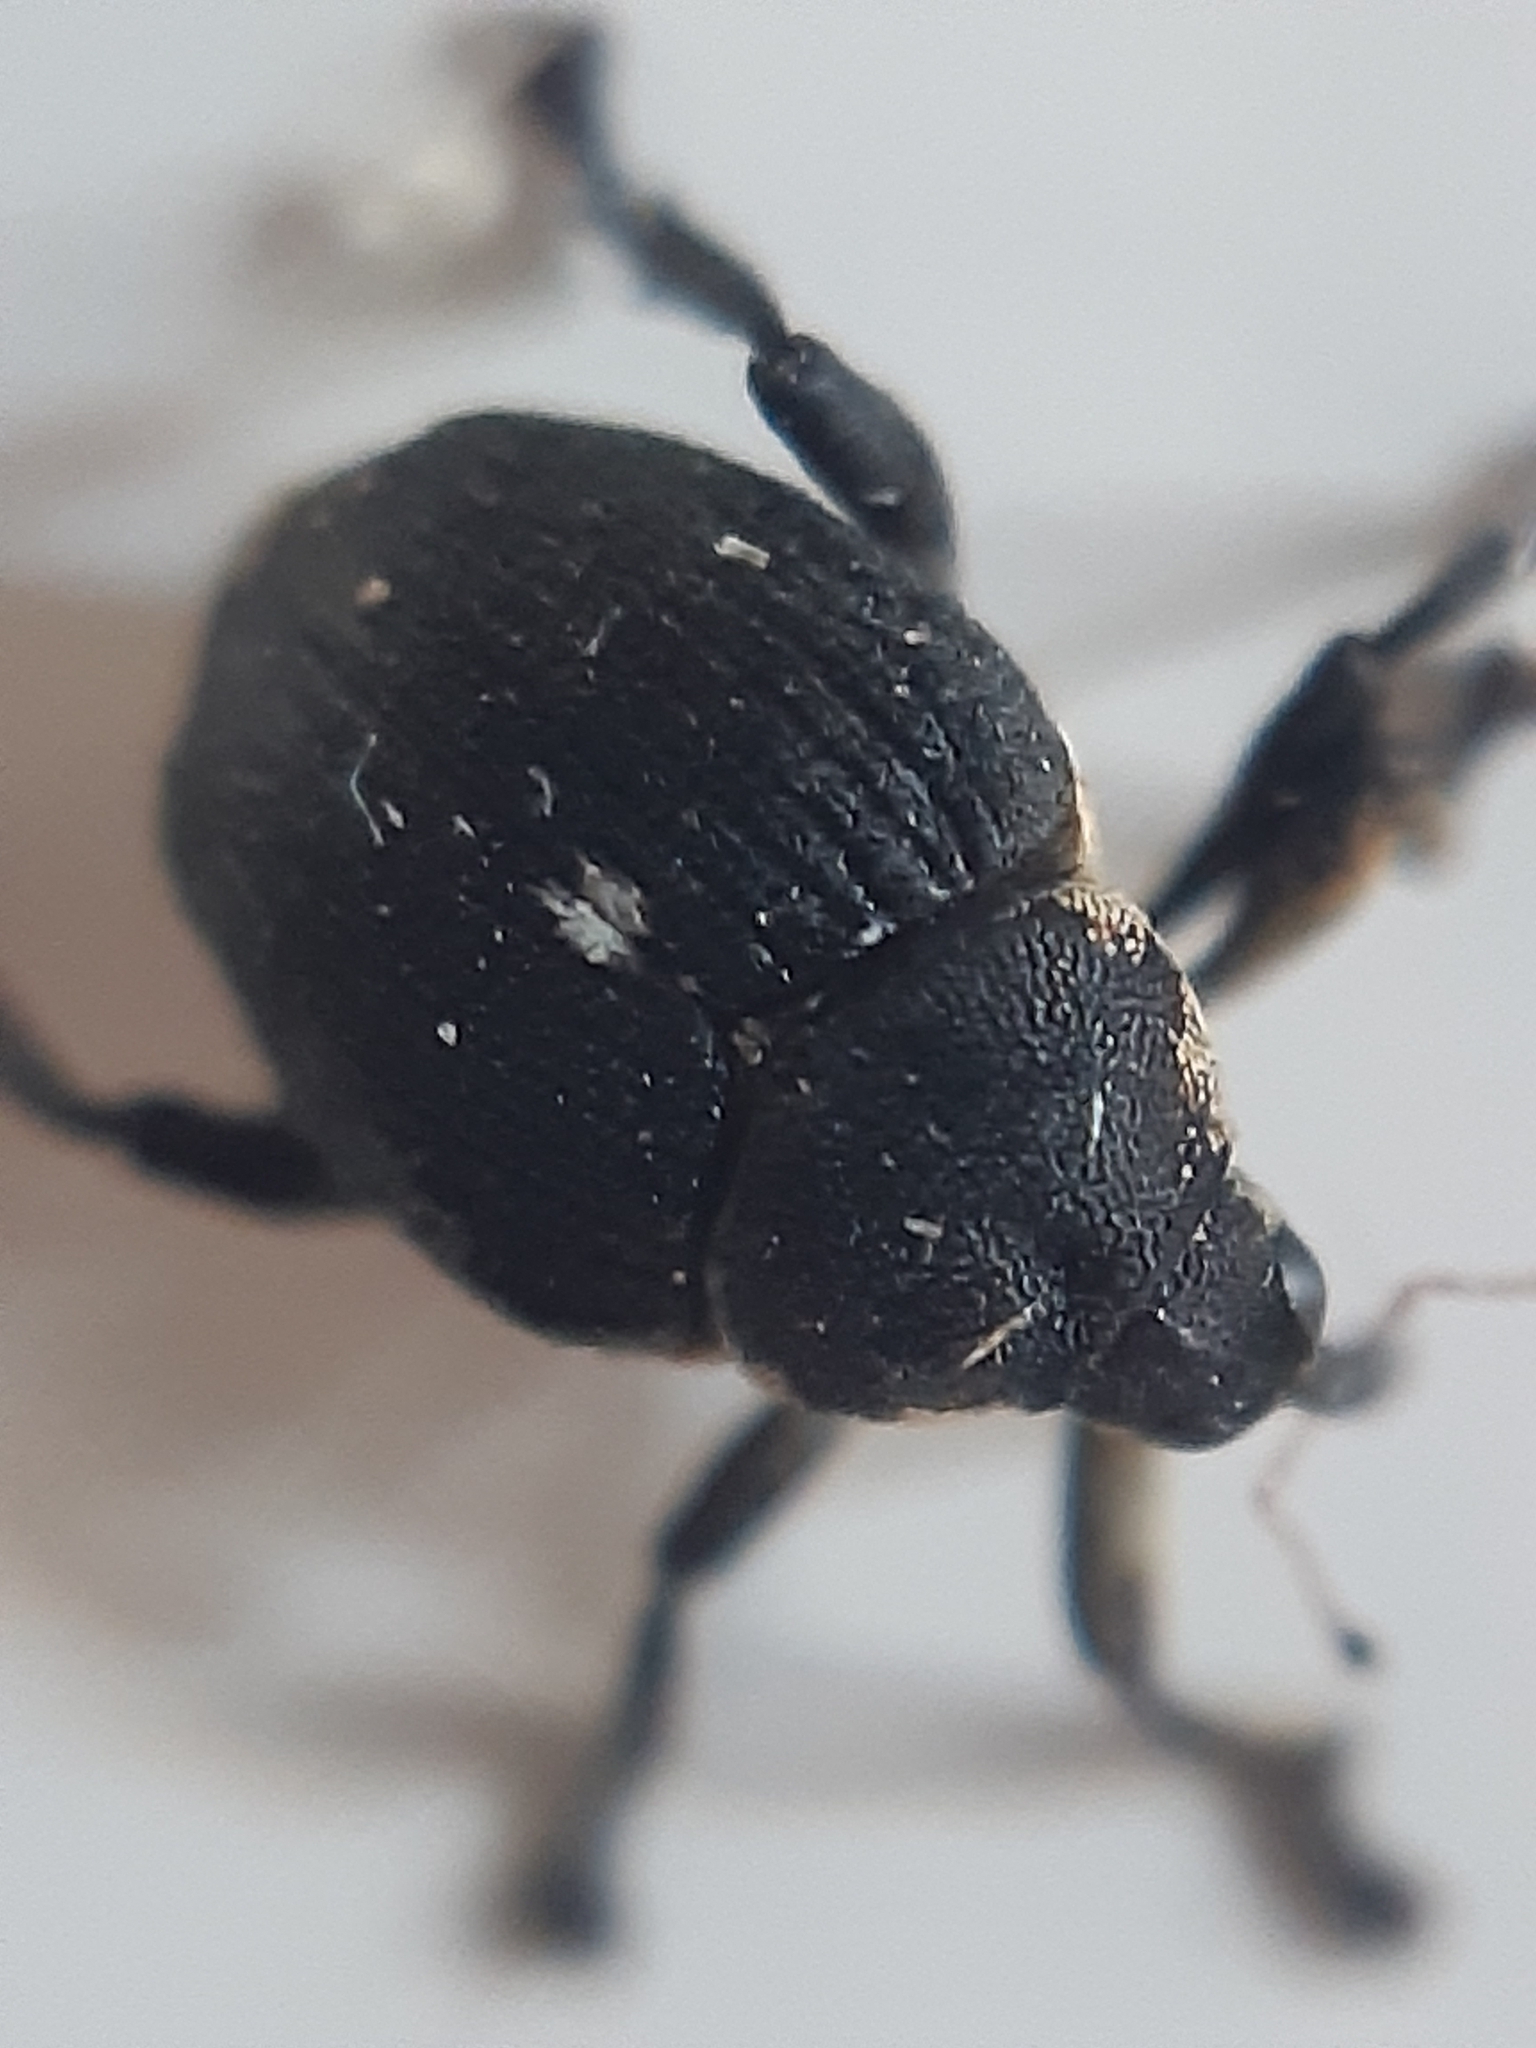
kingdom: Animalia
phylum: Arthropoda
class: Insecta
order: Coleoptera
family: Curculionidae
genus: Mononychus
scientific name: Mononychus punctumalbum
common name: Iris weevil
